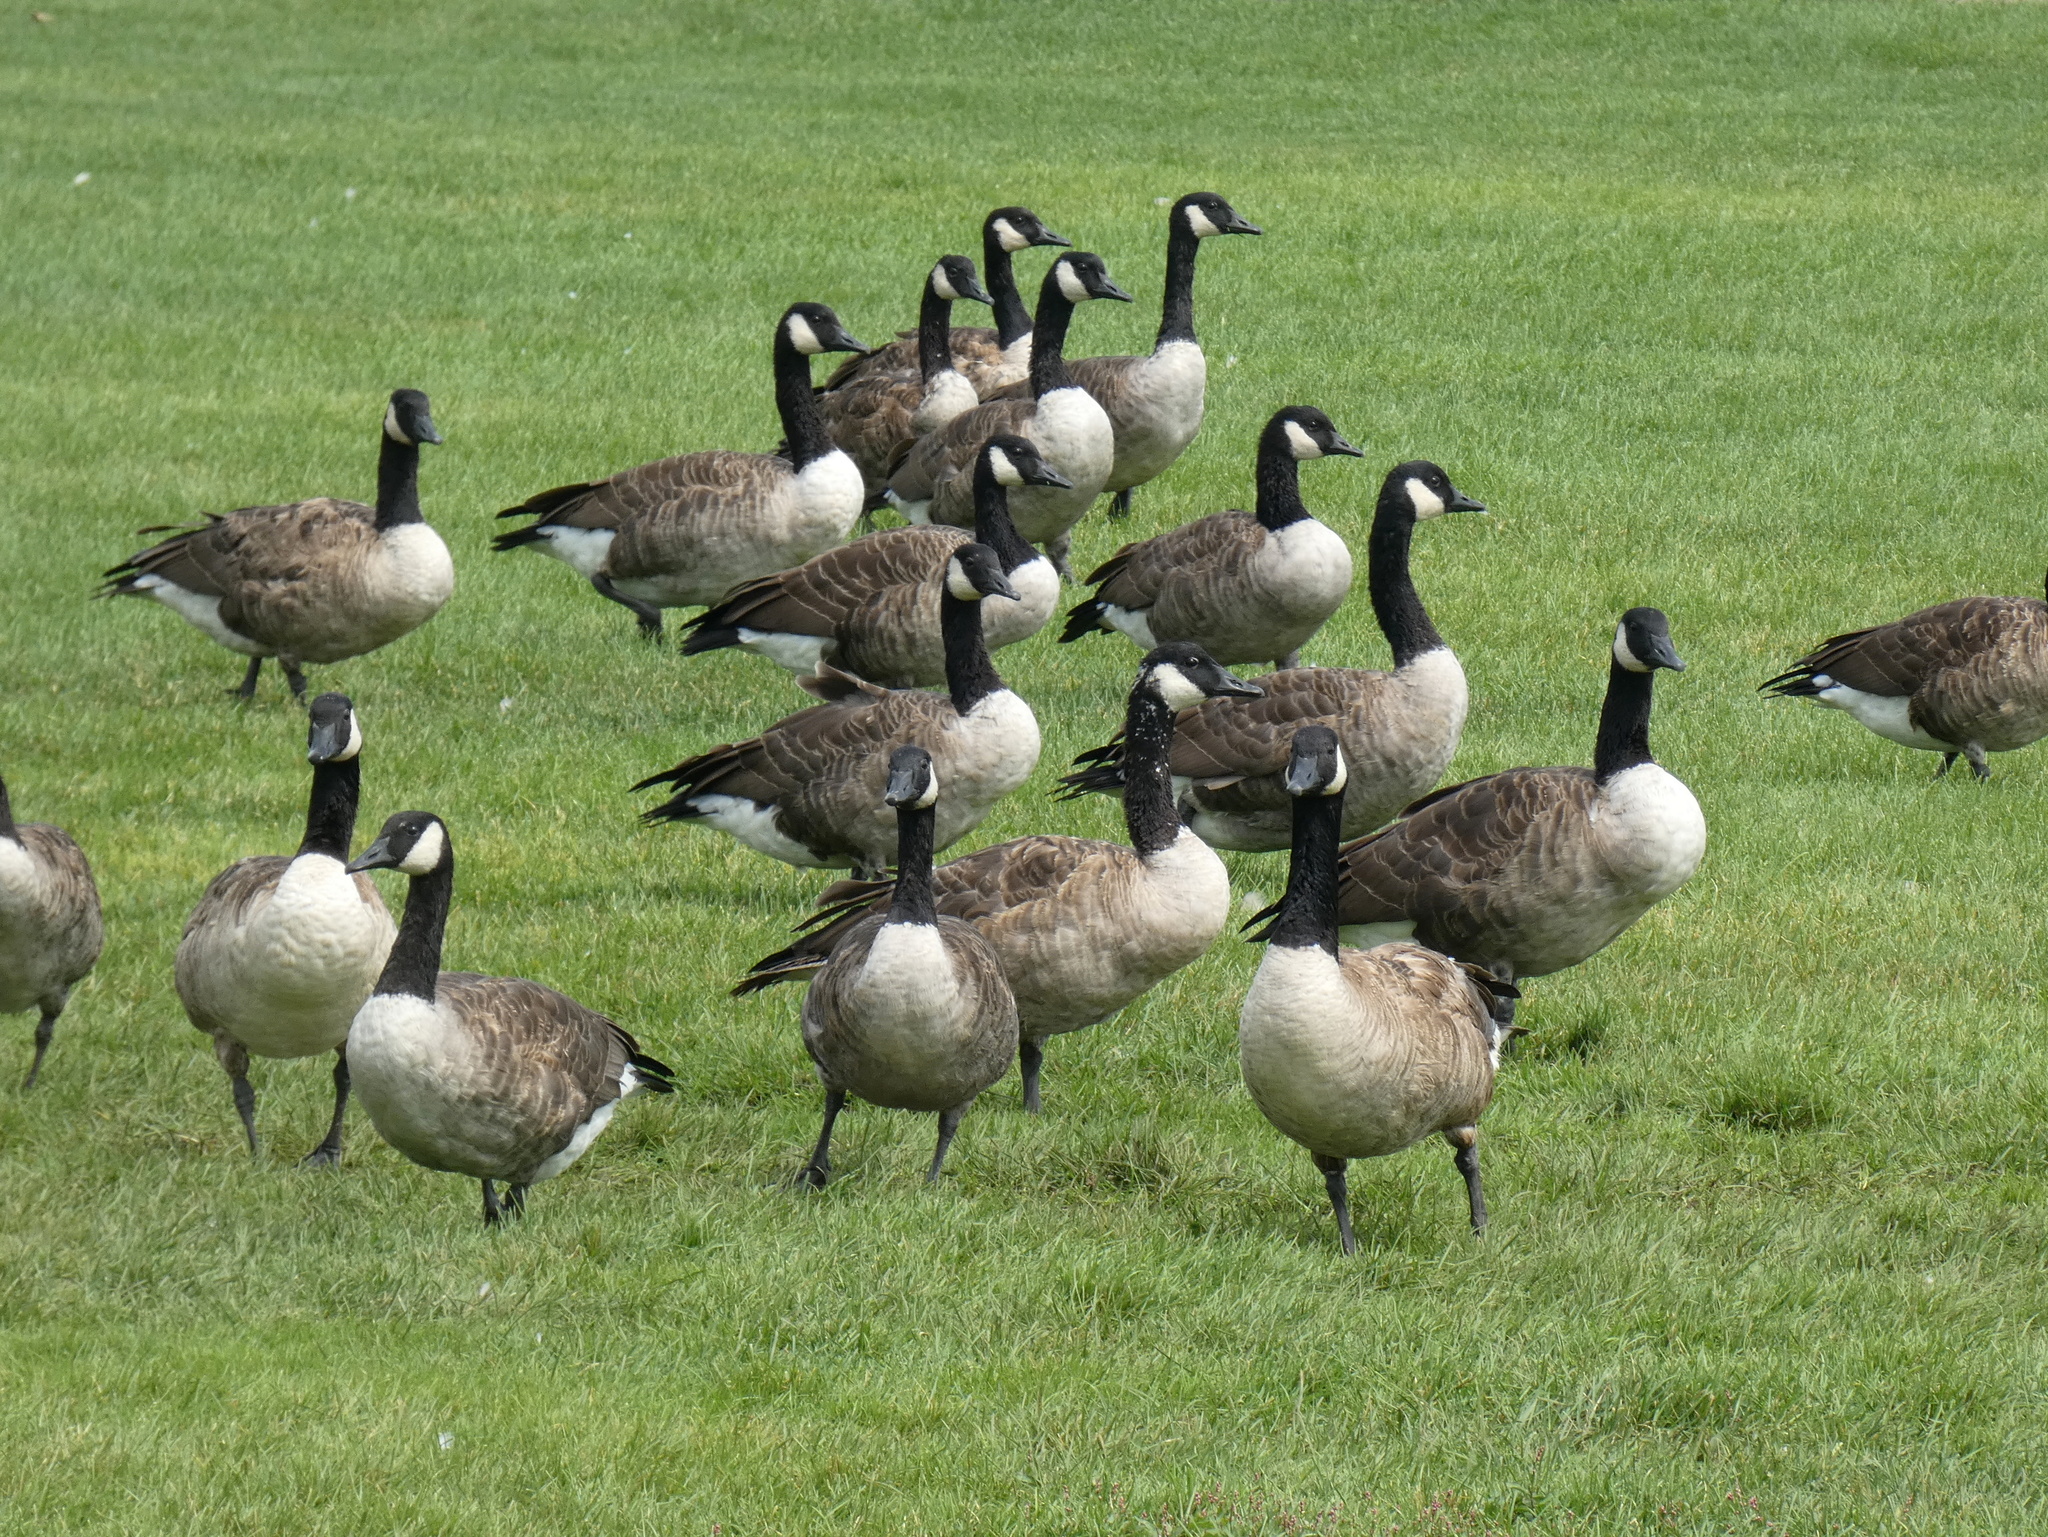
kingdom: Animalia
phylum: Chordata
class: Aves
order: Anseriformes
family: Anatidae
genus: Branta
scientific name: Branta canadensis
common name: Canada goose
